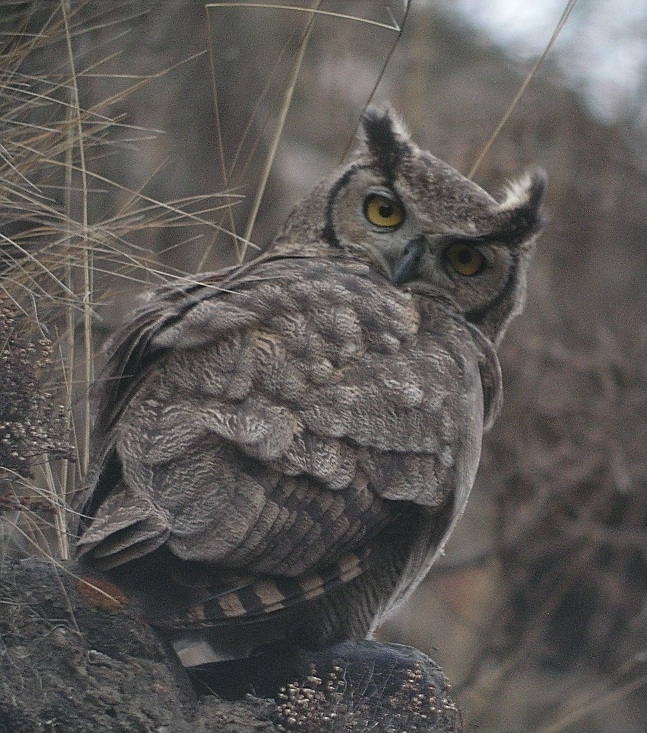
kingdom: Animalia
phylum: Chordata
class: Aves
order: Strigiformes
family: Strigidae
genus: Bubo
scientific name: Bubo magellanicus
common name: Lesser horned owl
